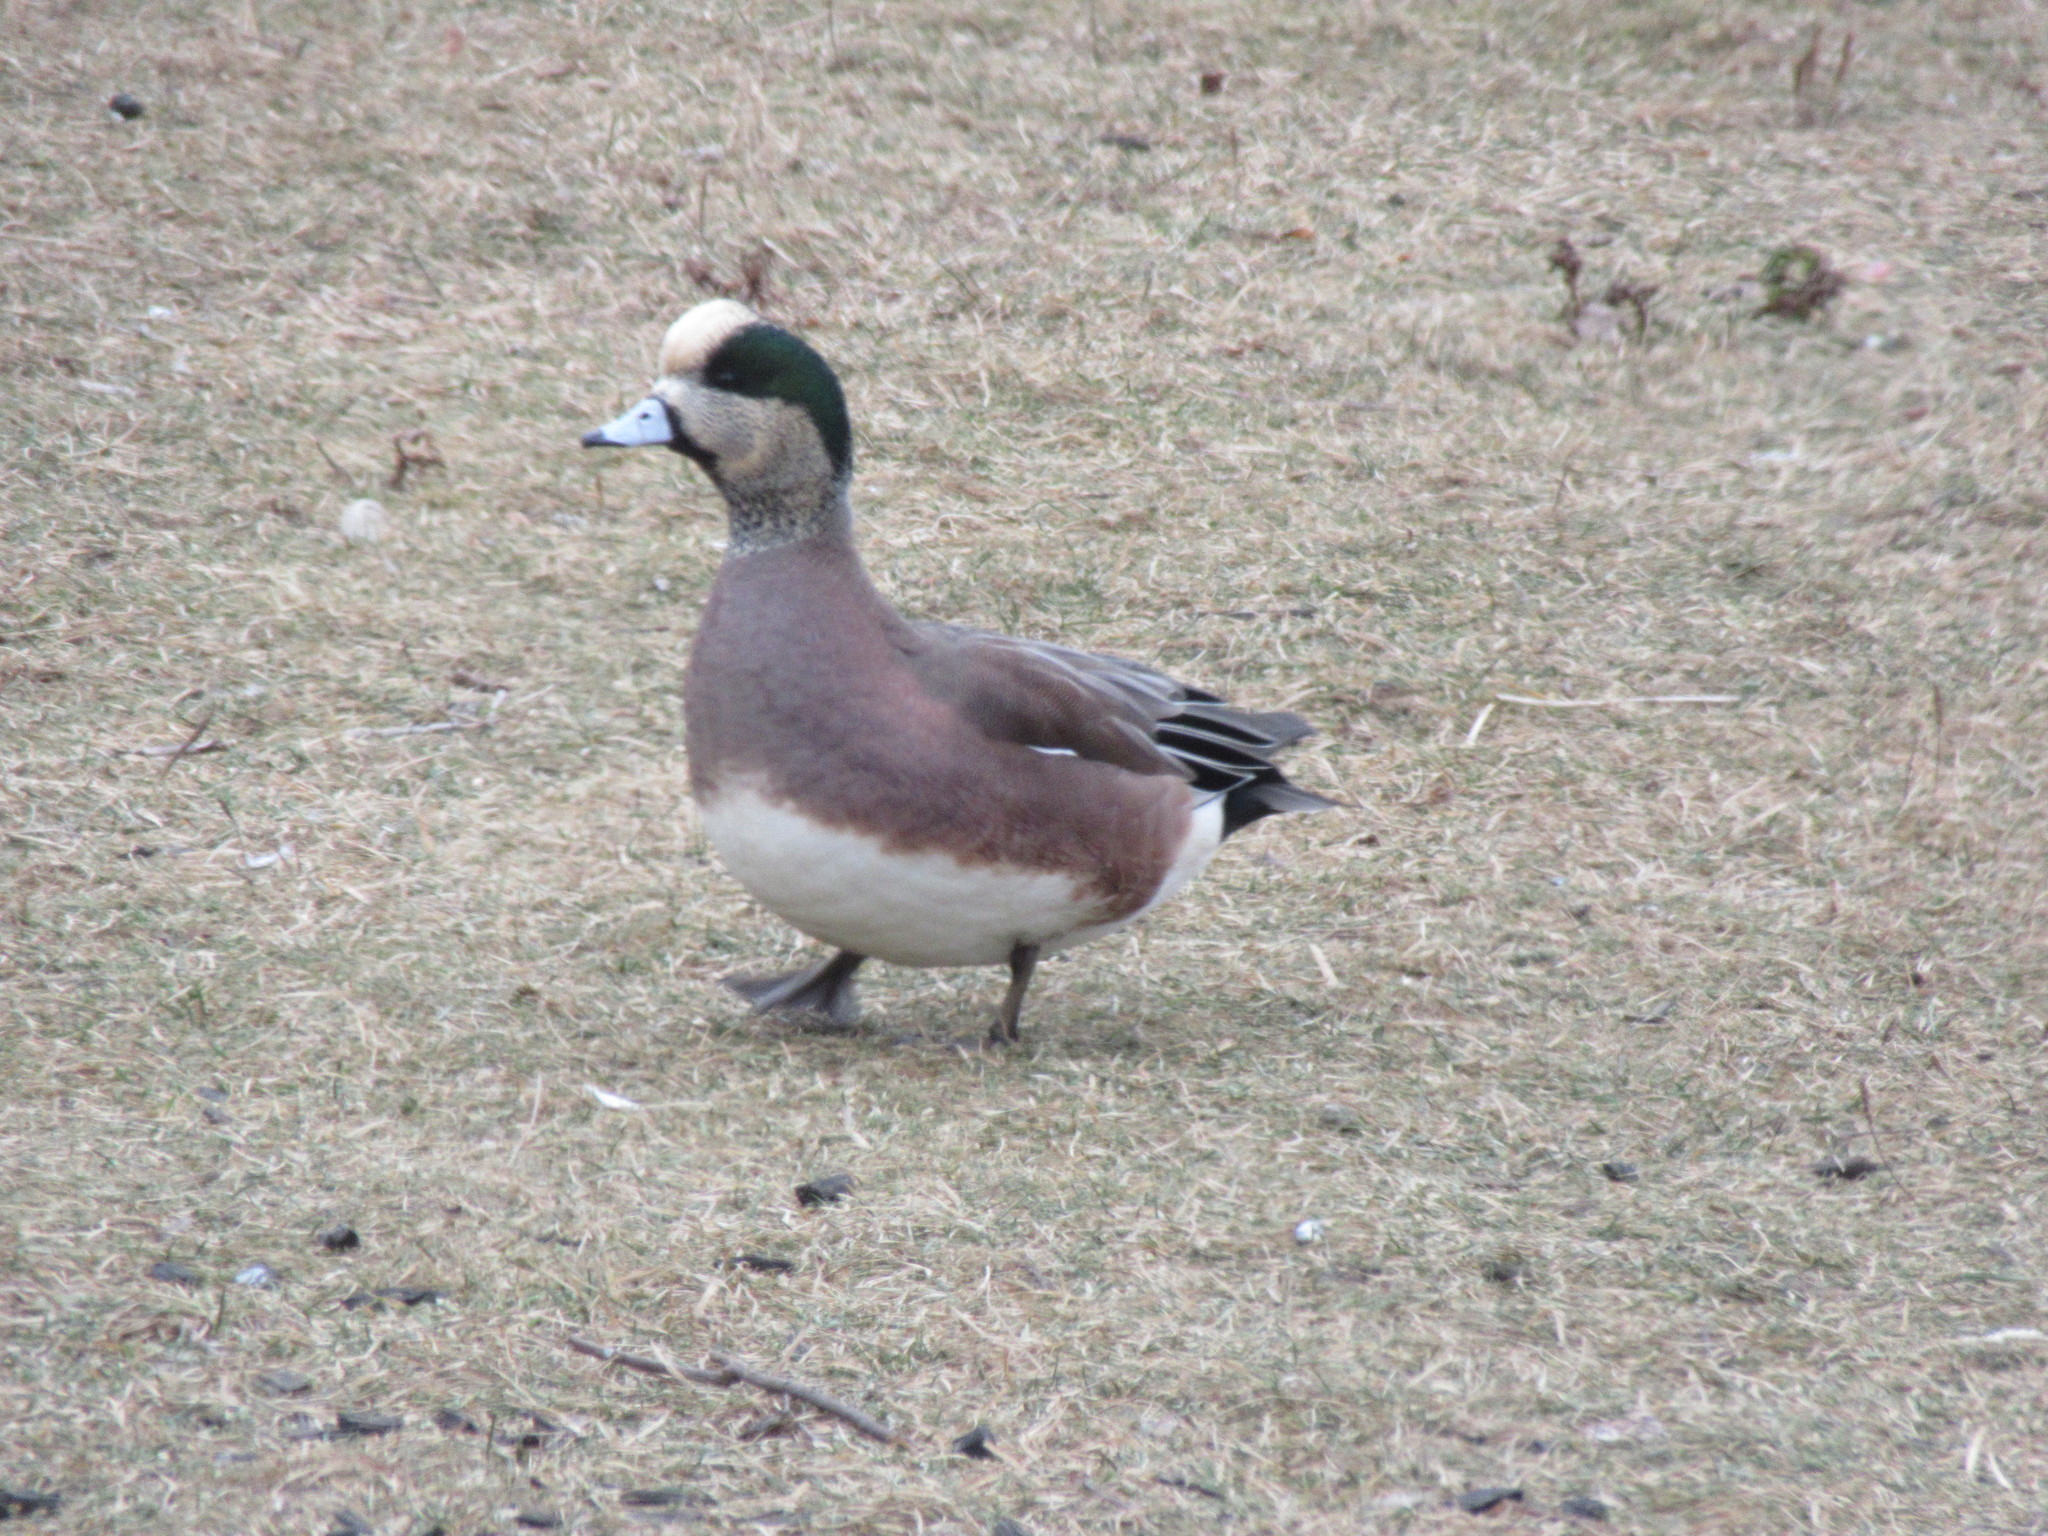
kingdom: Animalia
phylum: Chordata
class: Aves
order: Anseriformes
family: Anatidae
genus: Mareca
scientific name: Mareca americana
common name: American wigeon
